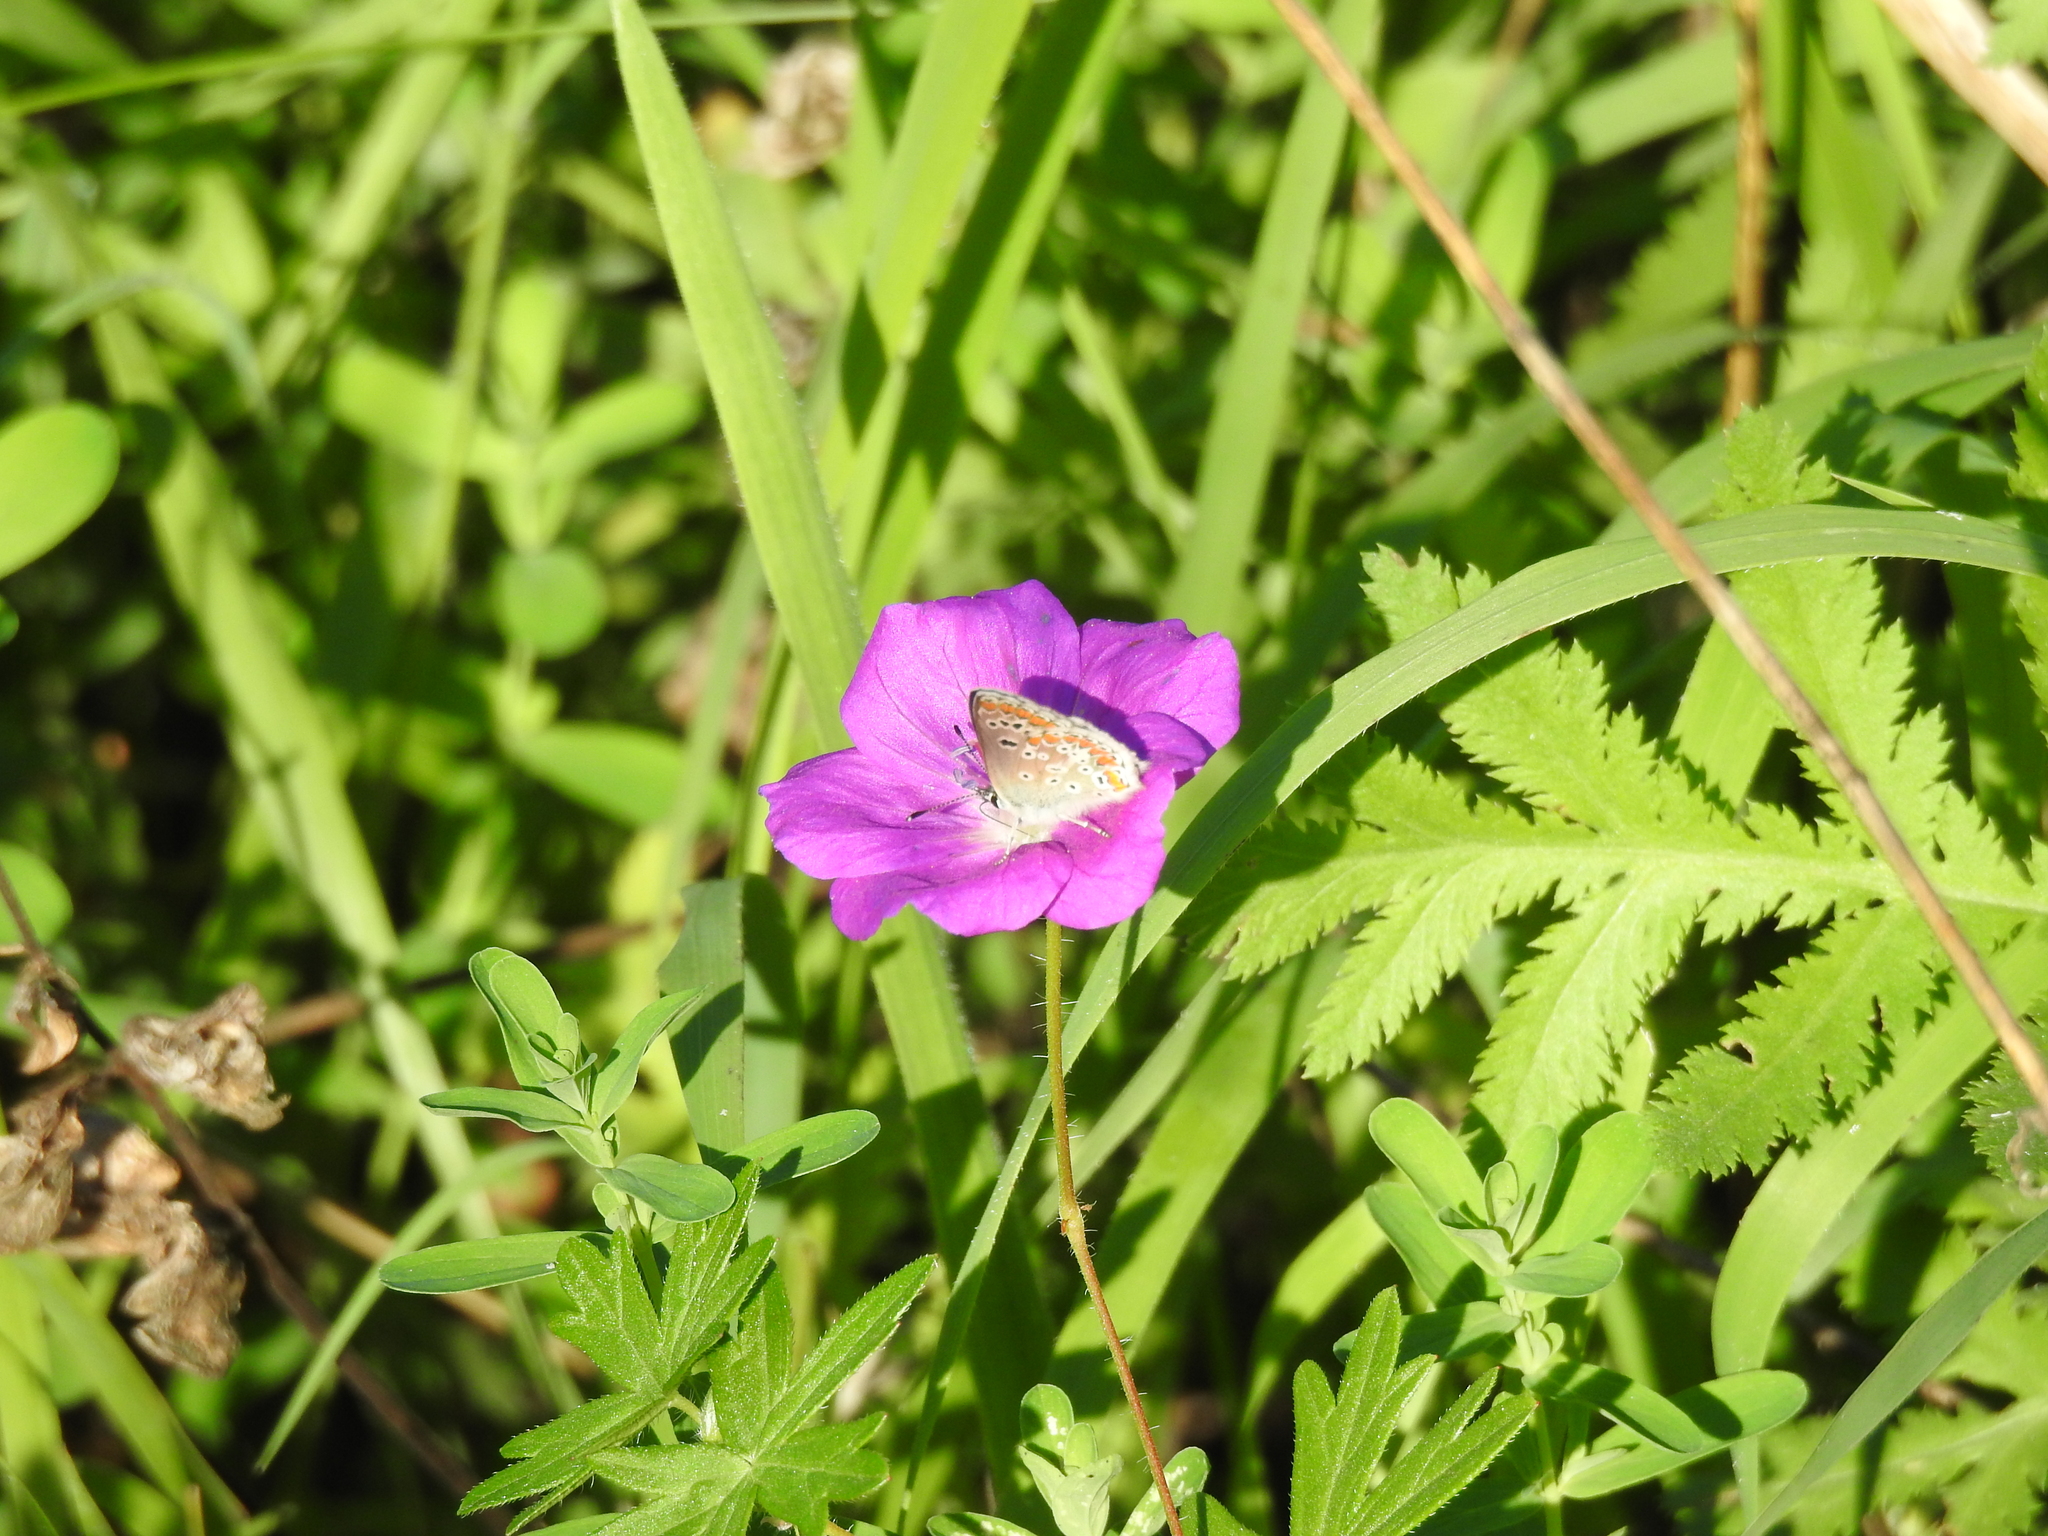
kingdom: Animalia
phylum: Arthropoda
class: Insecta
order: Lepidoptera
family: Lycaenidae
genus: Aricia
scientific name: Aricia agestis
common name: Brown argus
